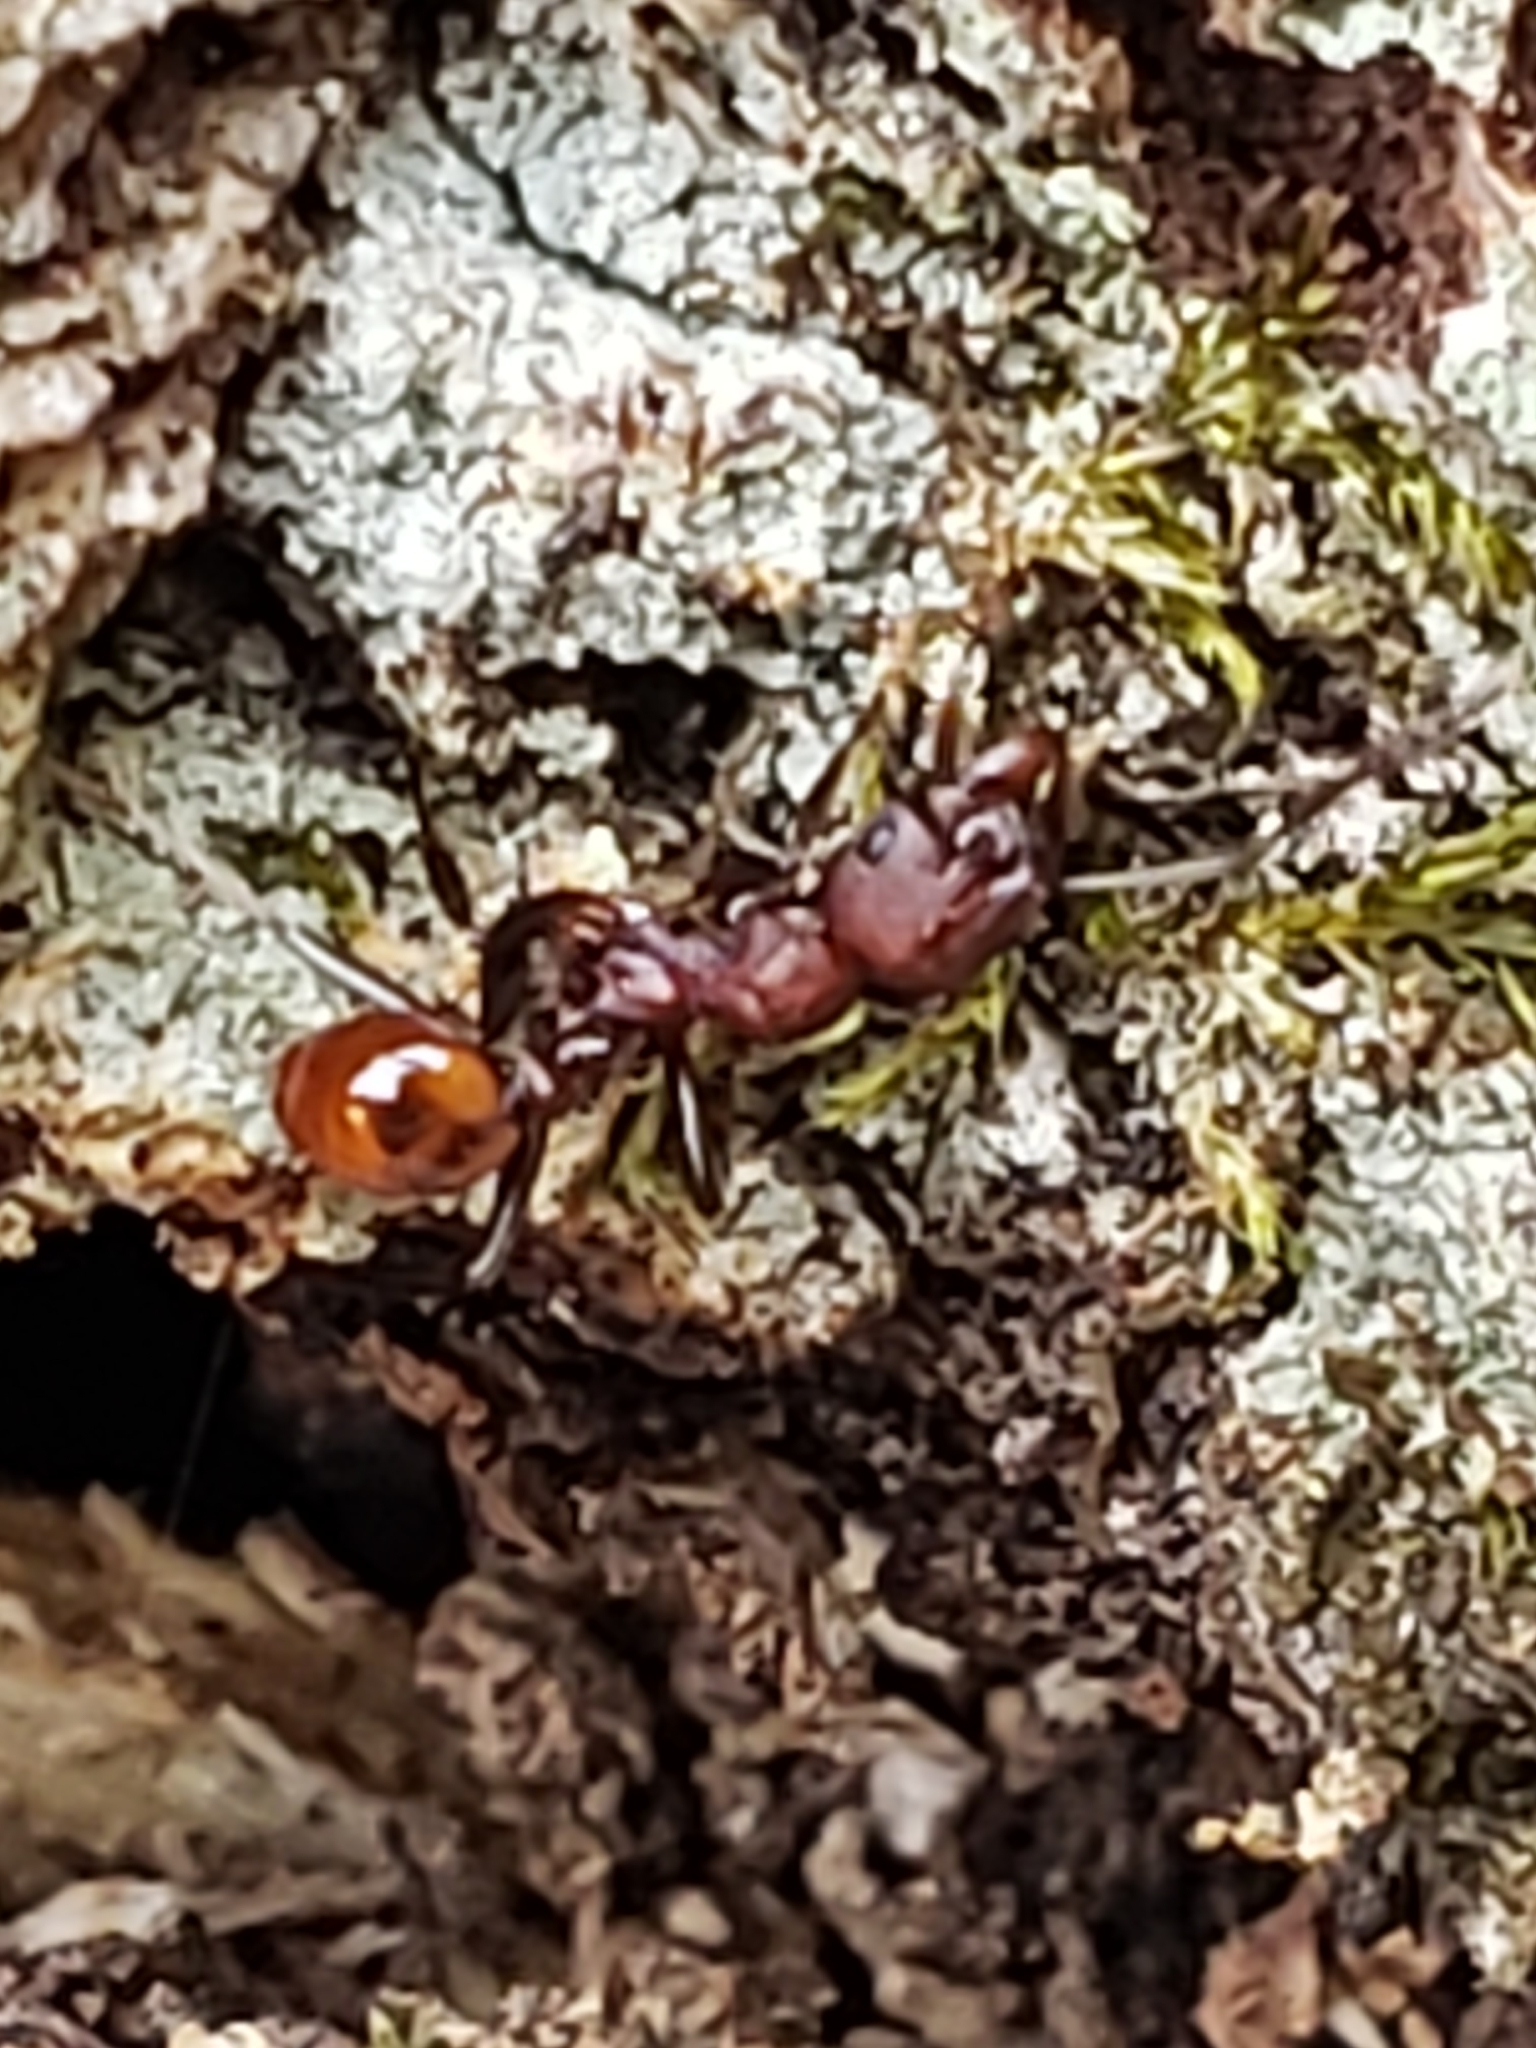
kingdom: Animalia
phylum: Arthropoda
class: Insecta
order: Hymenoptera
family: Formicidae
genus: Aphaenogaster
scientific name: Aphaenogaster tennesseensis
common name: Tennessee thread-waisted ant
